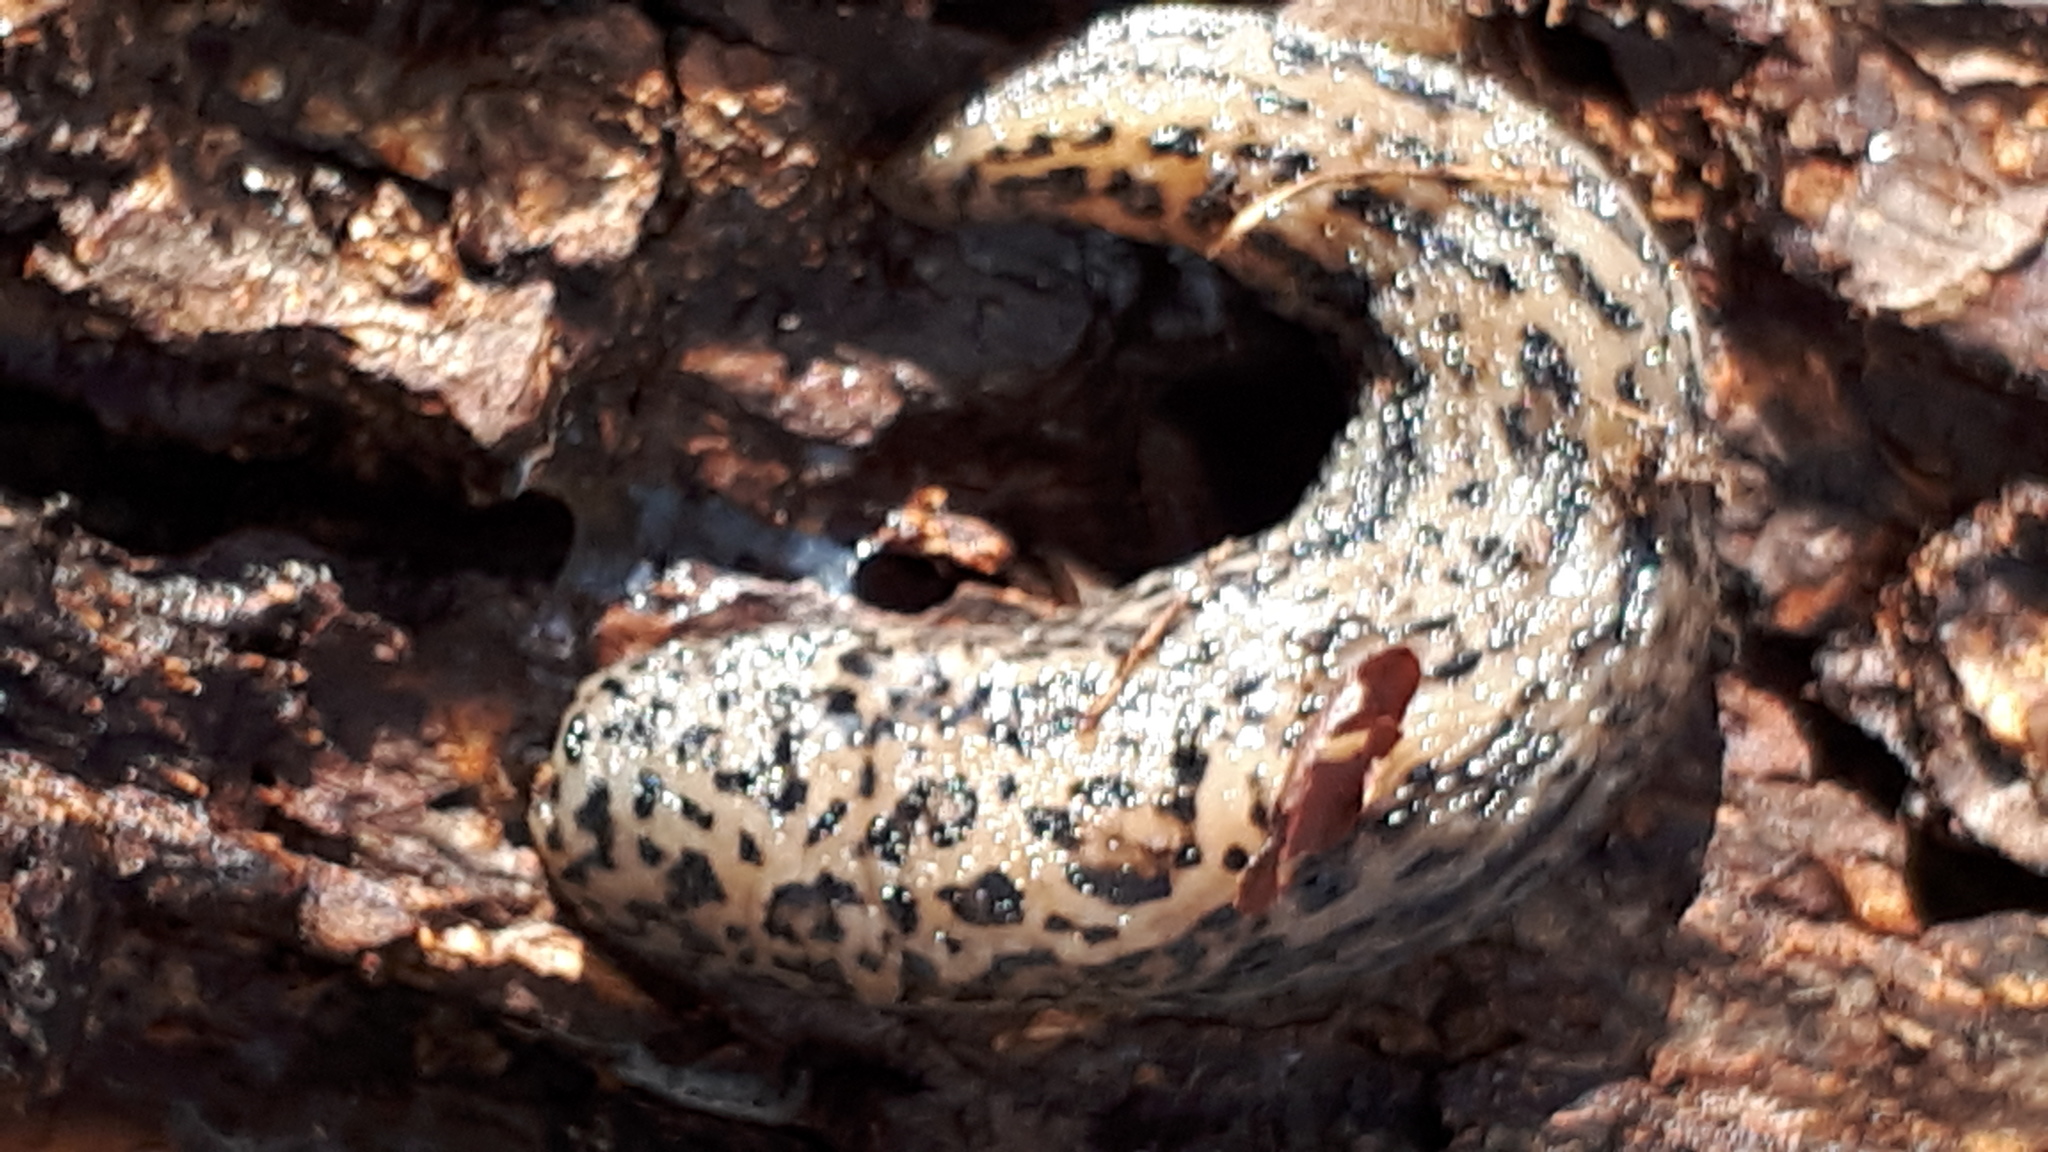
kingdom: Animalia
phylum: Mollusca
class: Gastropoda
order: Stylommatophora
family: Limacidae
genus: Limax
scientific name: Limax maximus
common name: Great grey slug
